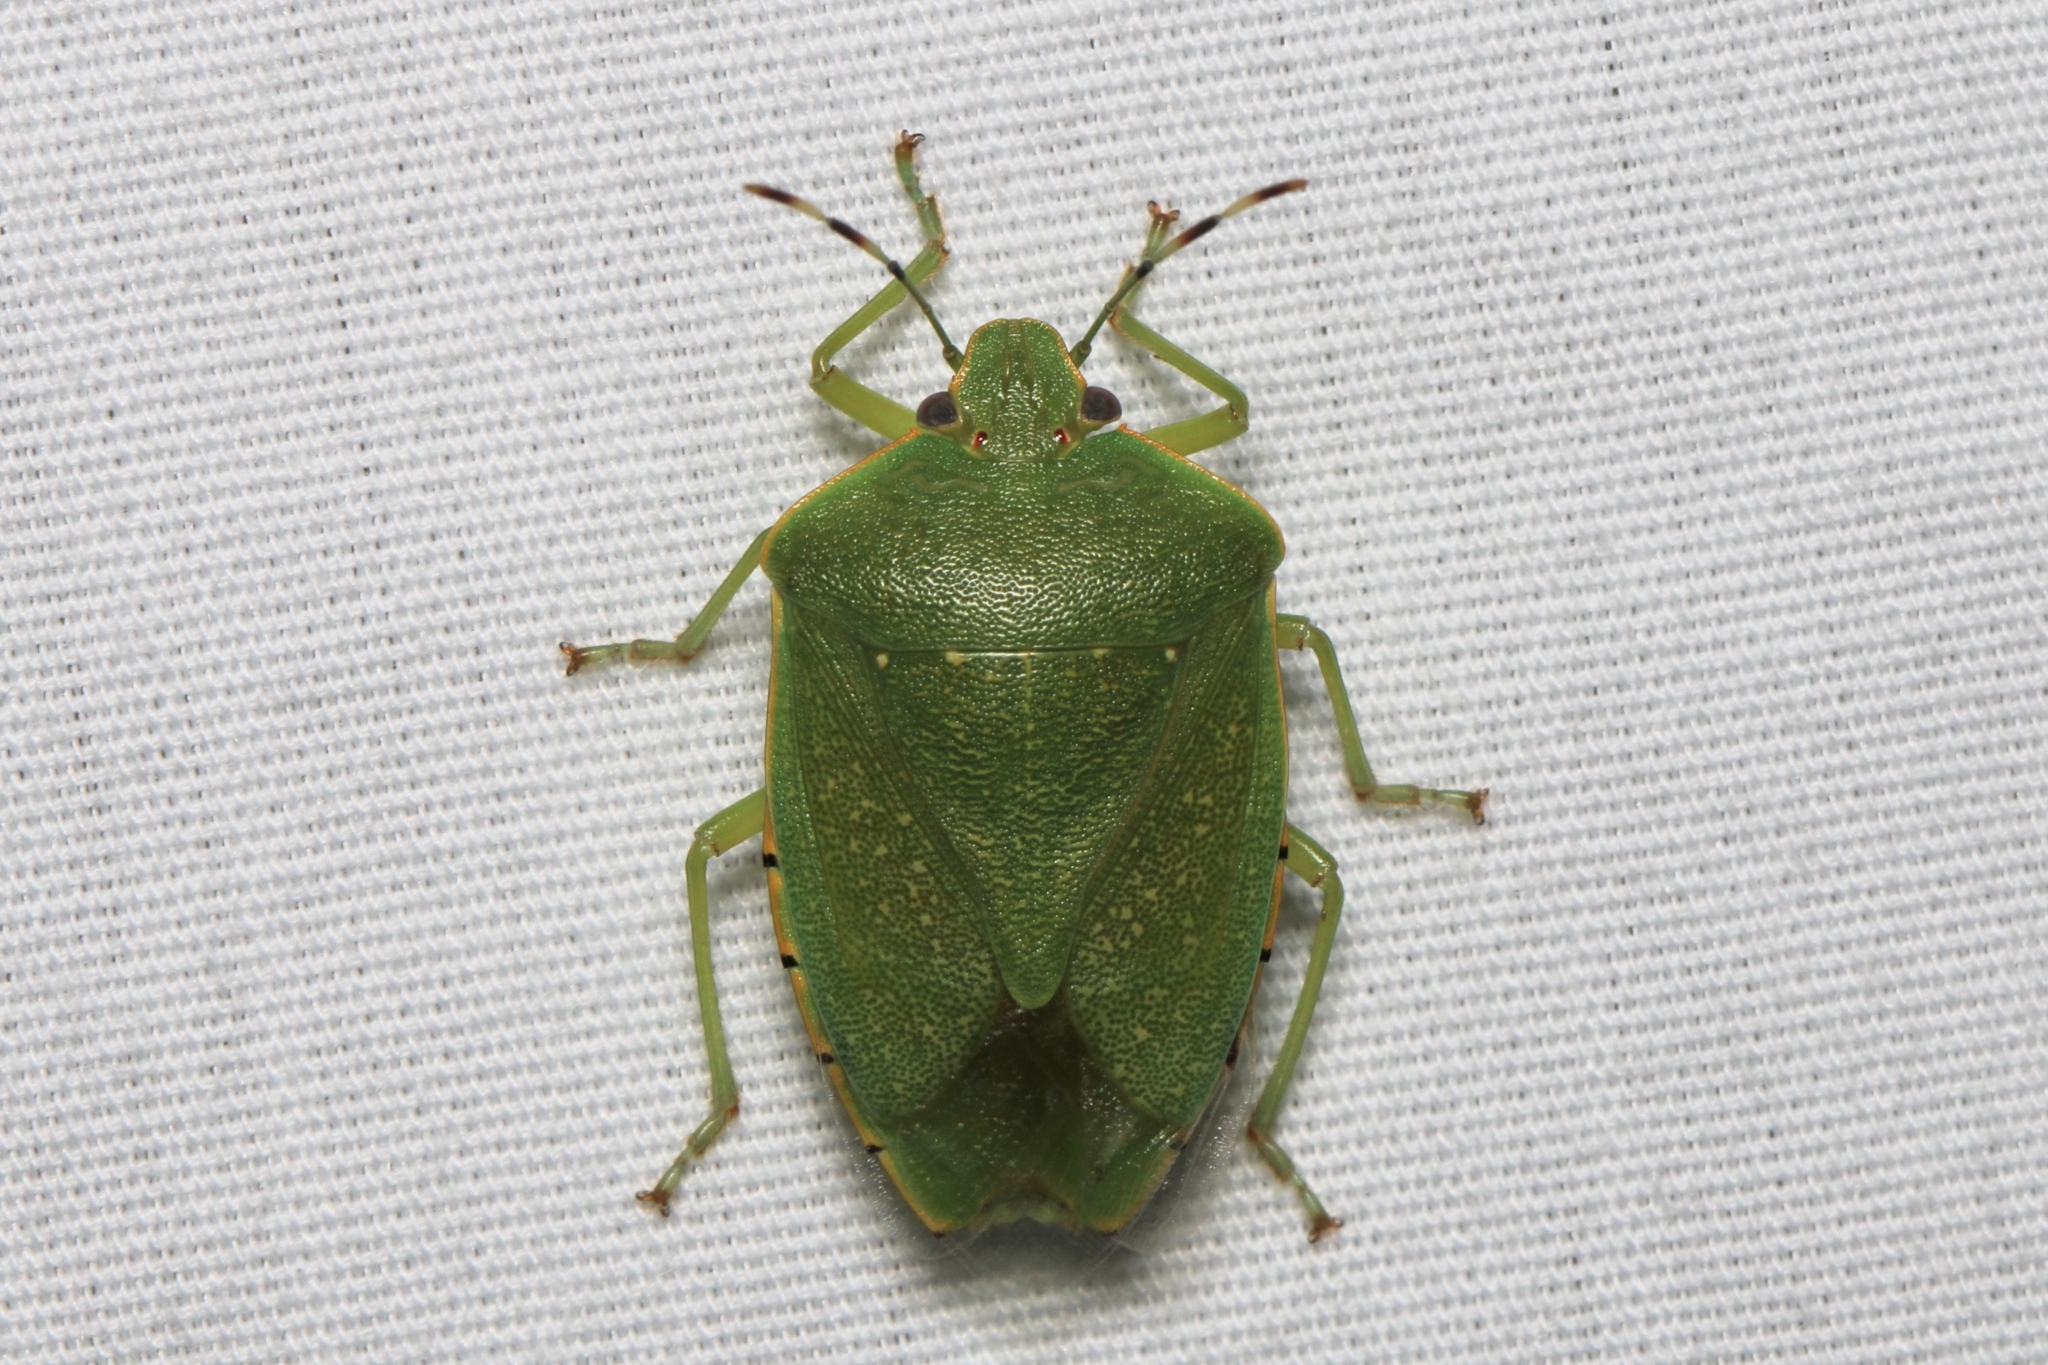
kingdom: Animalia
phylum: Arthropoda
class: Insecta
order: Hemiptera
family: Pentatomidae
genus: Chinavia
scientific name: Chinavia hilaris
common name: Green stink bug
